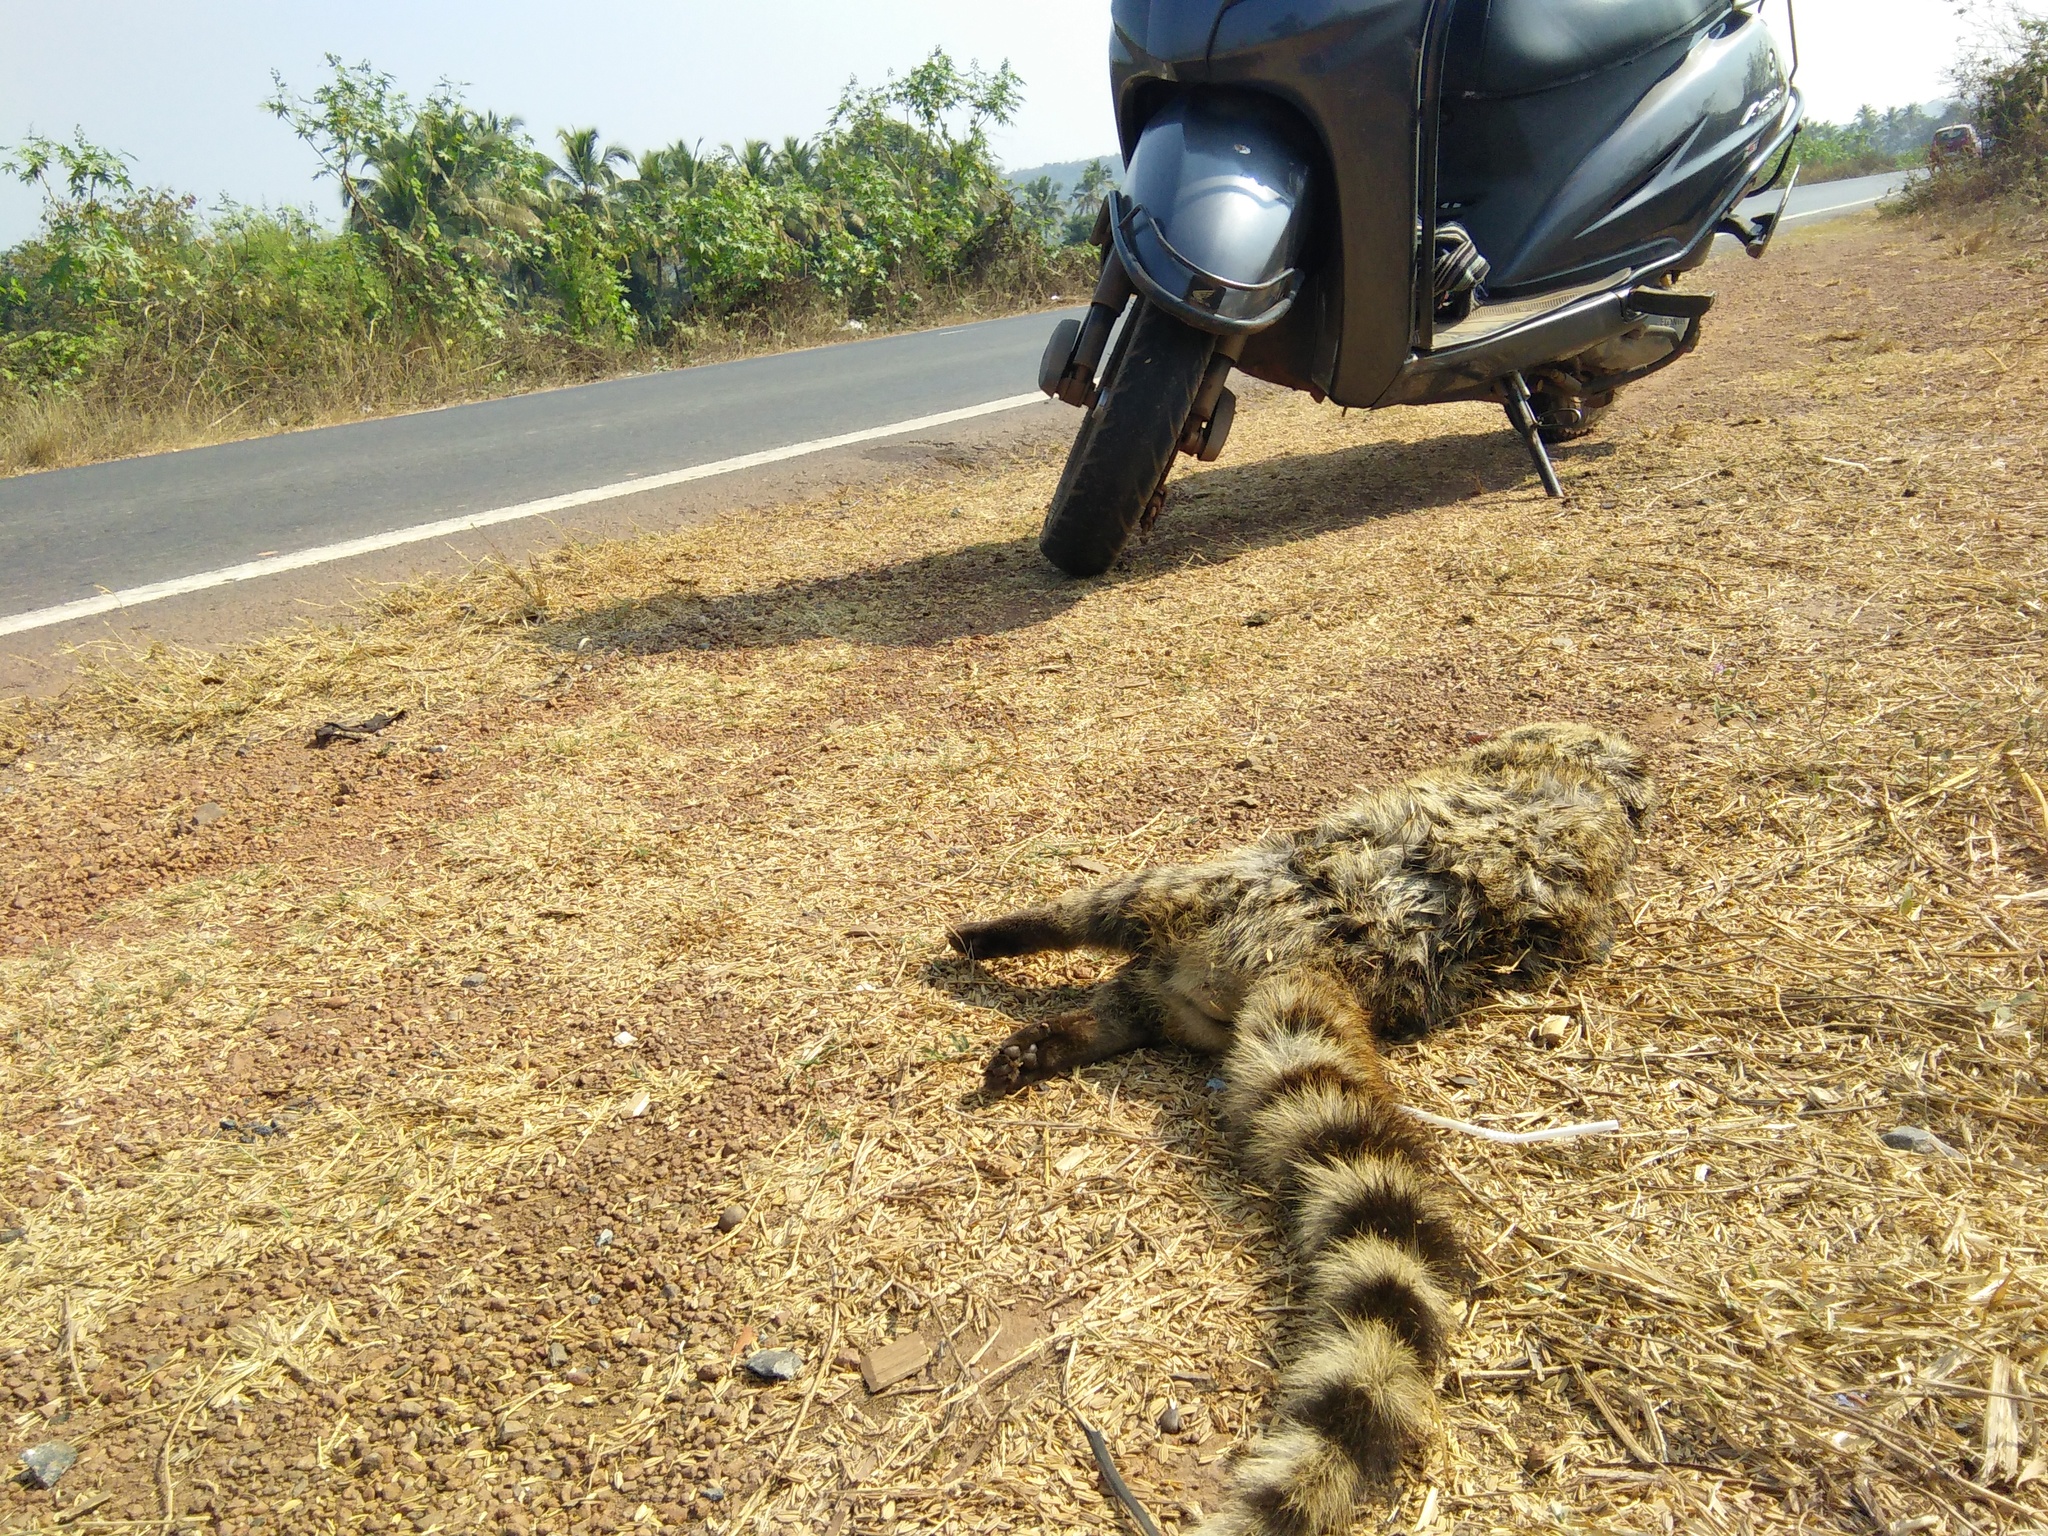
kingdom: Animalia
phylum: Chordata
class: Mammalia
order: Carnivora
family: Viverridae
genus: Viverricula
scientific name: Viverricula indica
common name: Small indian civet
